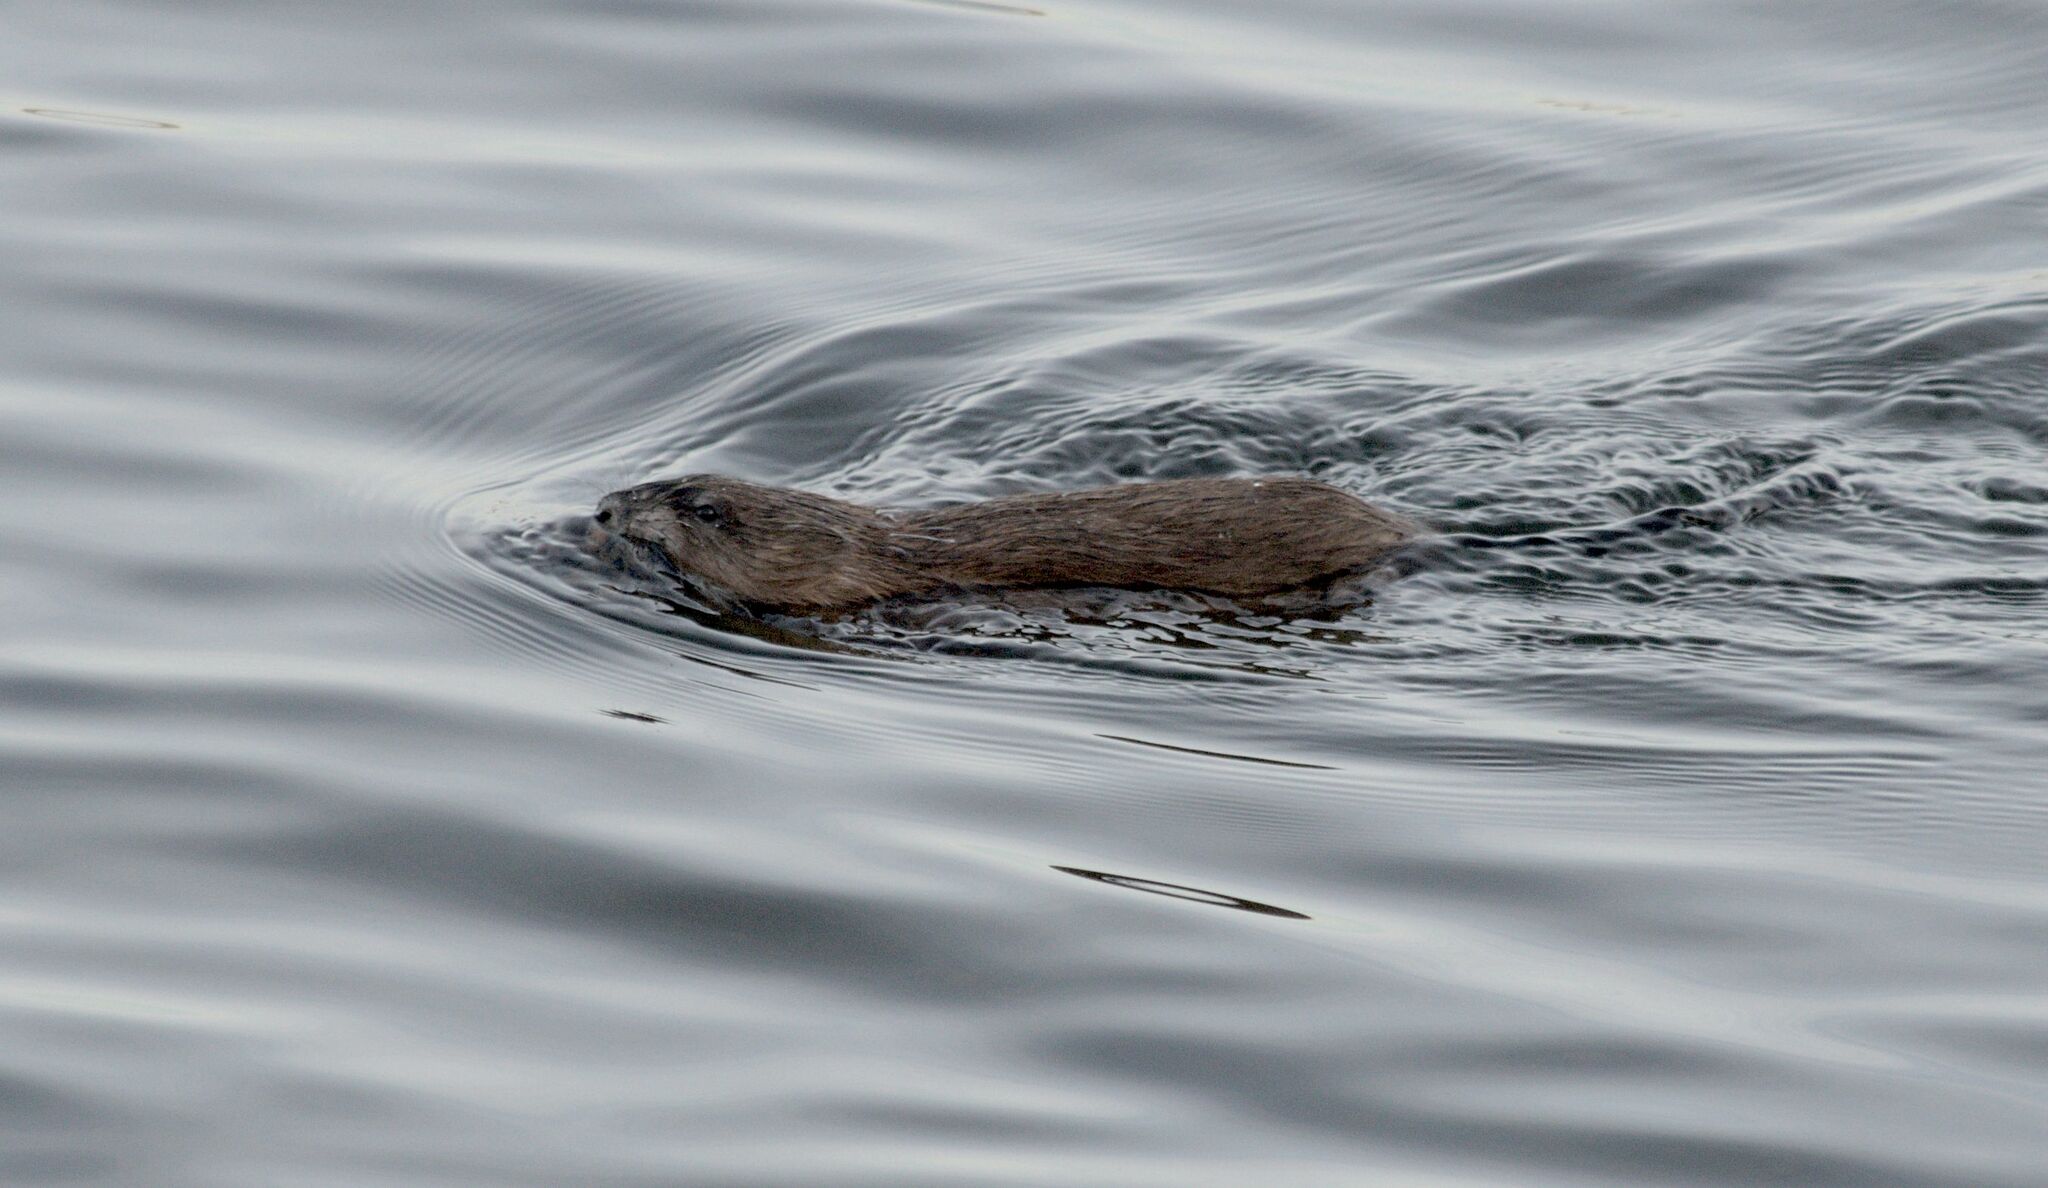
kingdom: Animalia
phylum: Chordata
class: Mammalia
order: Rodentia
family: Cricetidae
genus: Ondatra
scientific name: Ondatra zibethicus
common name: Muskrat
